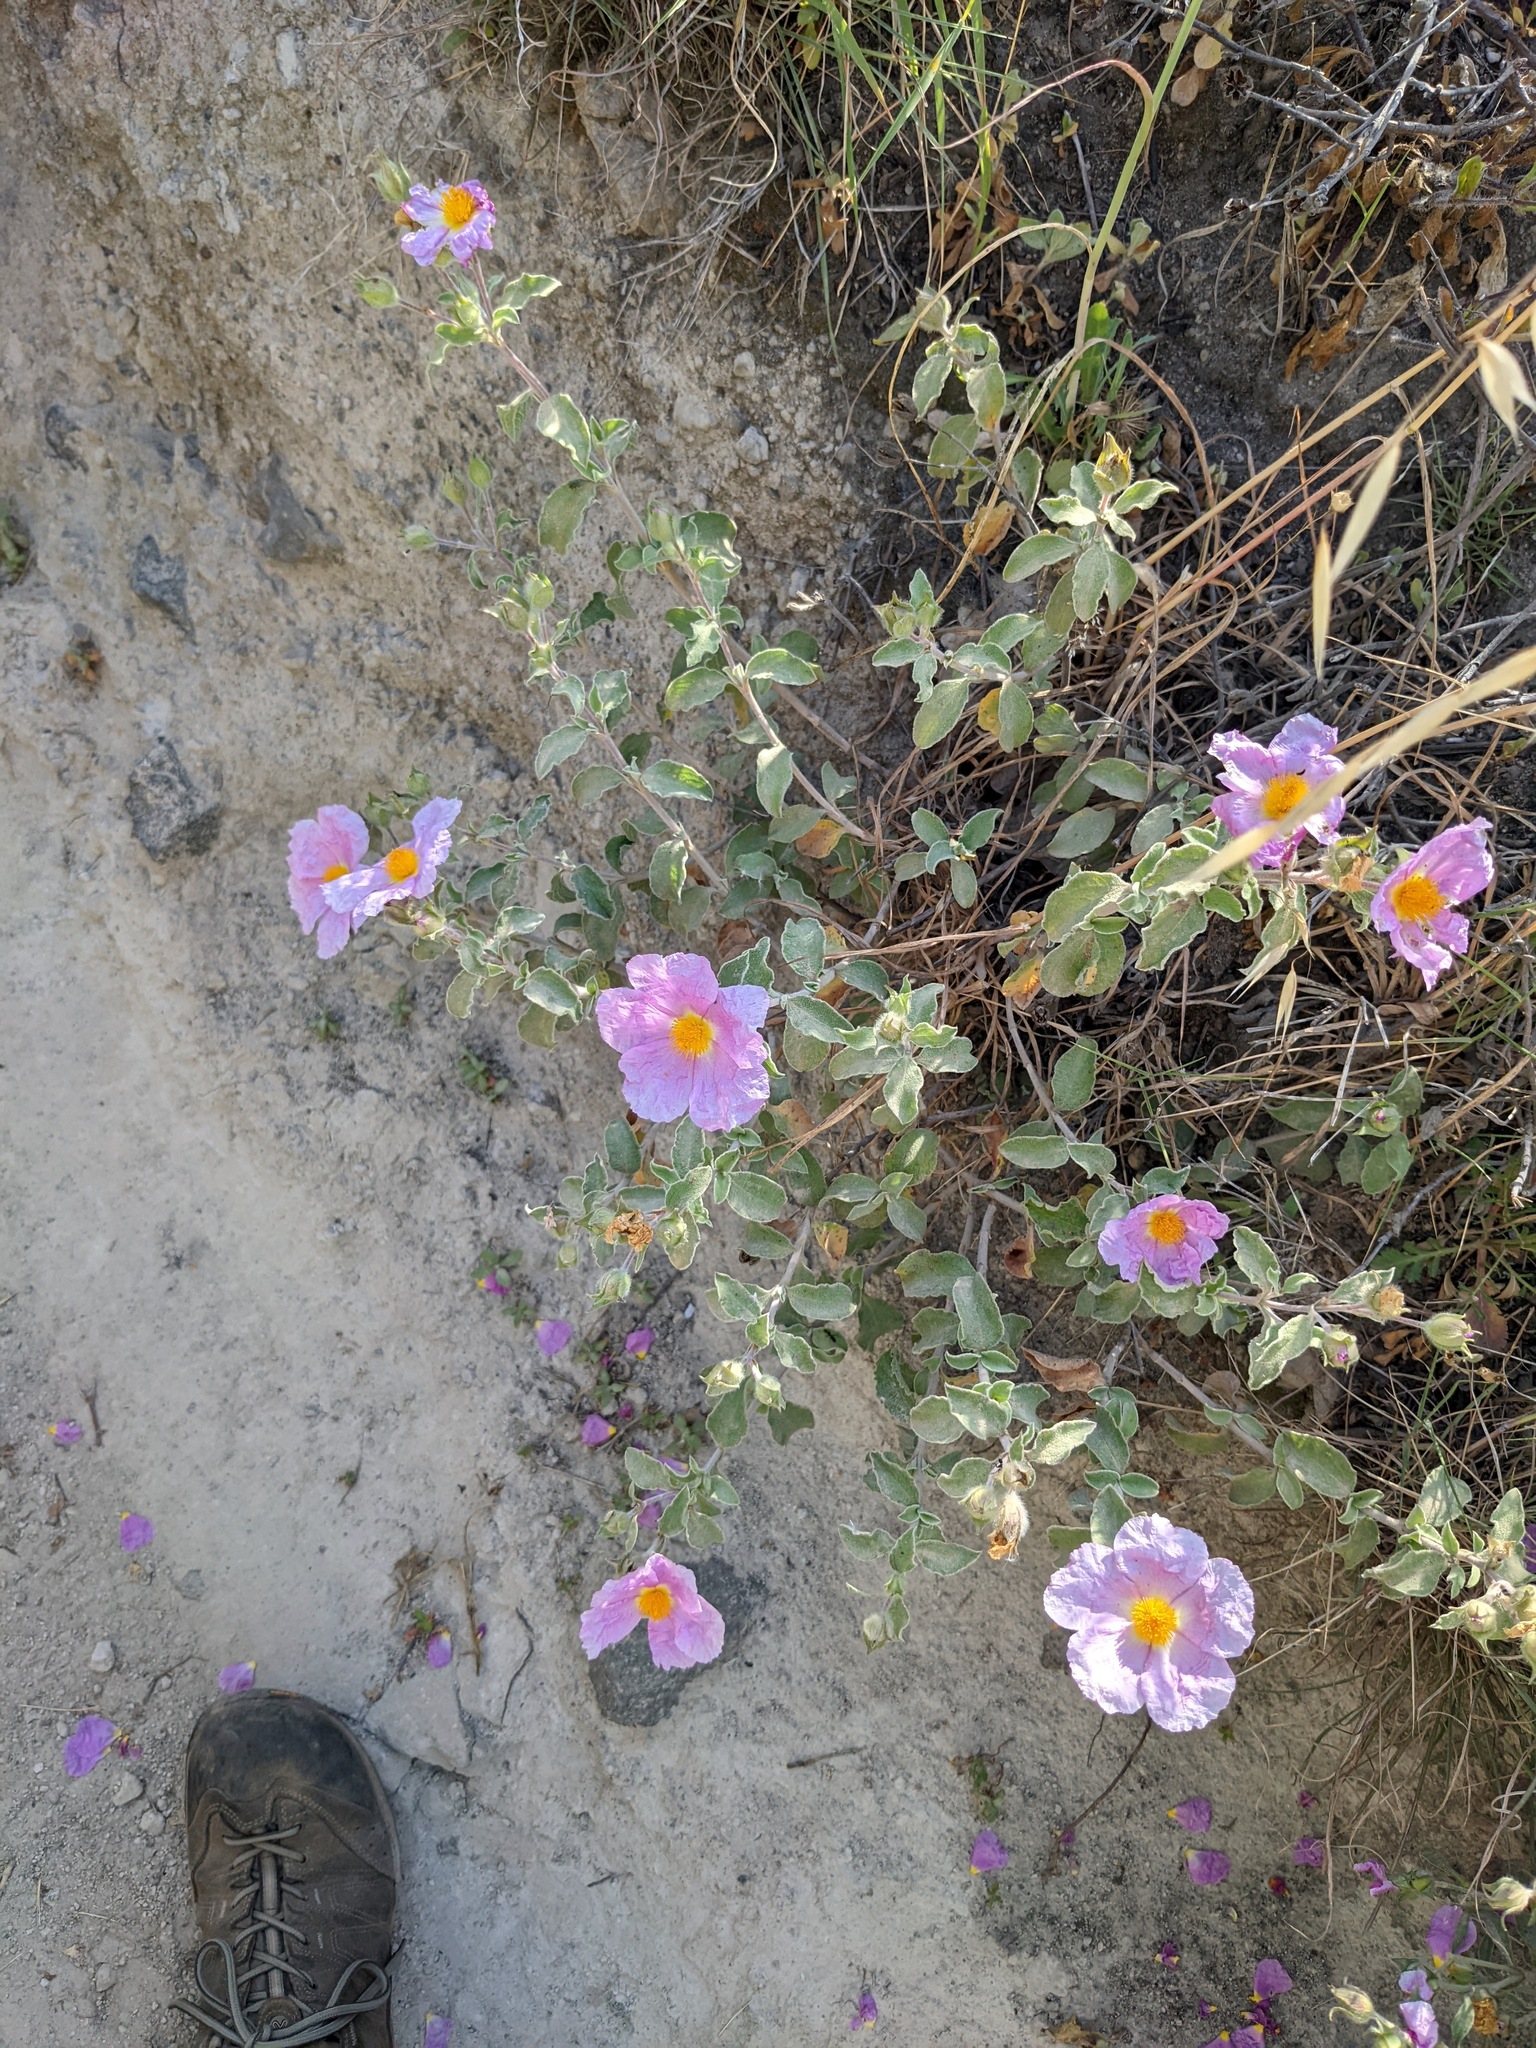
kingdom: Plantae
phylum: Tracheophyta
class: Magnoliopsida
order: Malvales
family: Cistaceae
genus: Cistus
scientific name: Cistus creticus
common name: Cretan rockrose
